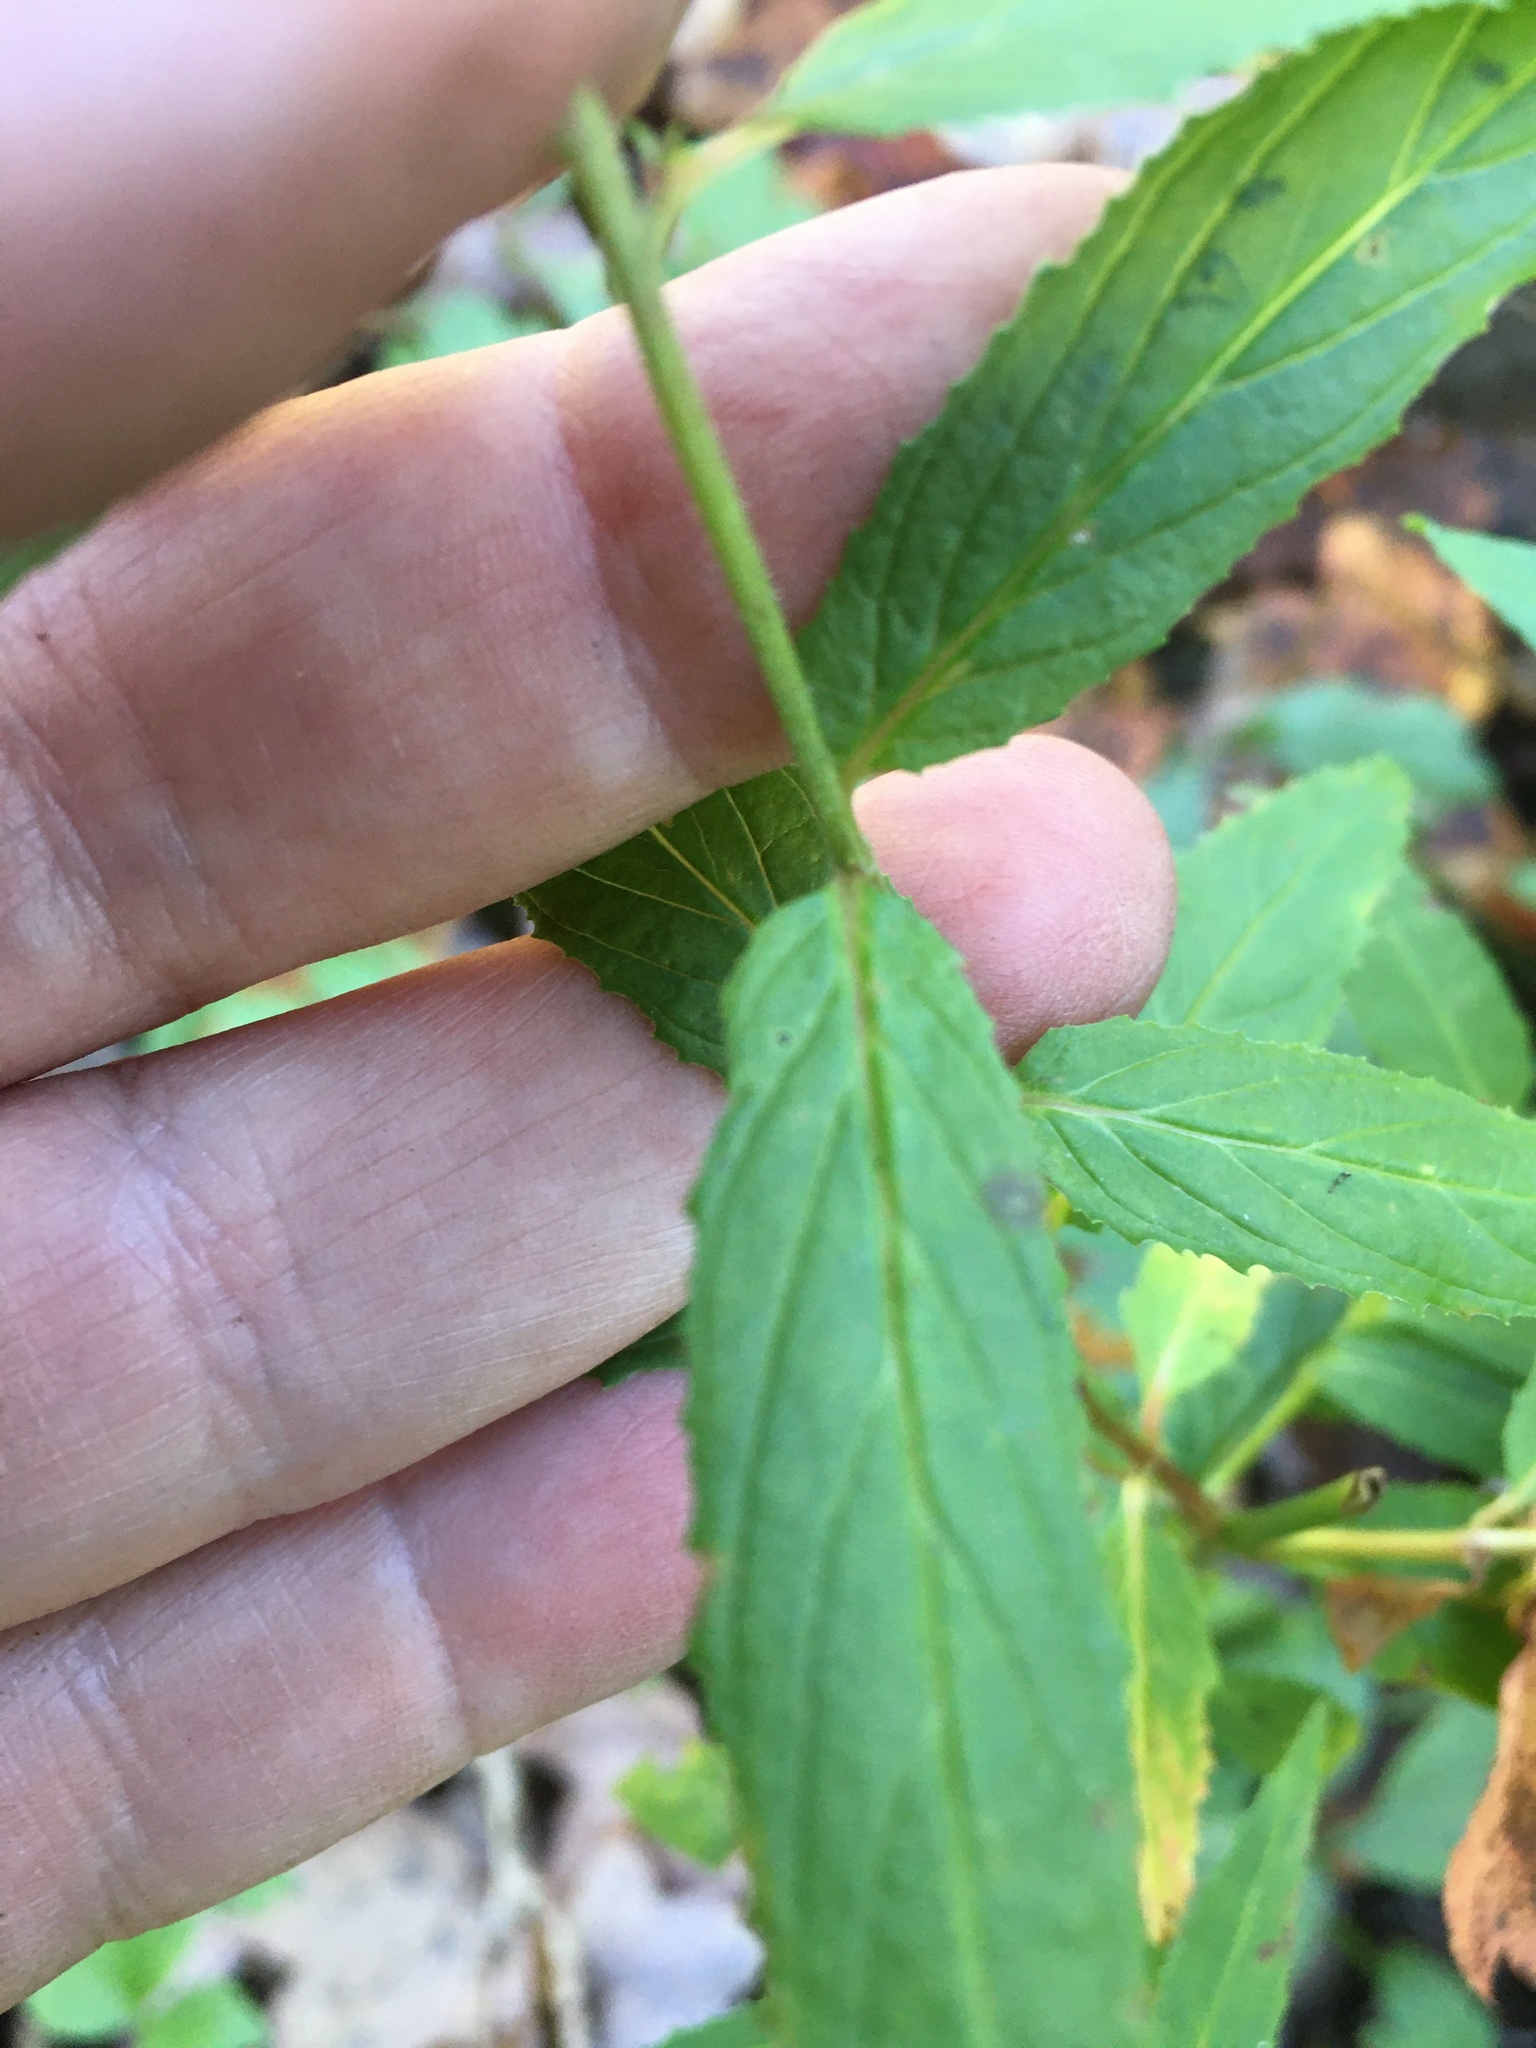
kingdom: Plantae
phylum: Tracheophyta
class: Magnoliopsida
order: Myrtales
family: Onagraceae
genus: Epilobium
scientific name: Epilobium coloratum
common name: Bronze willowherb
